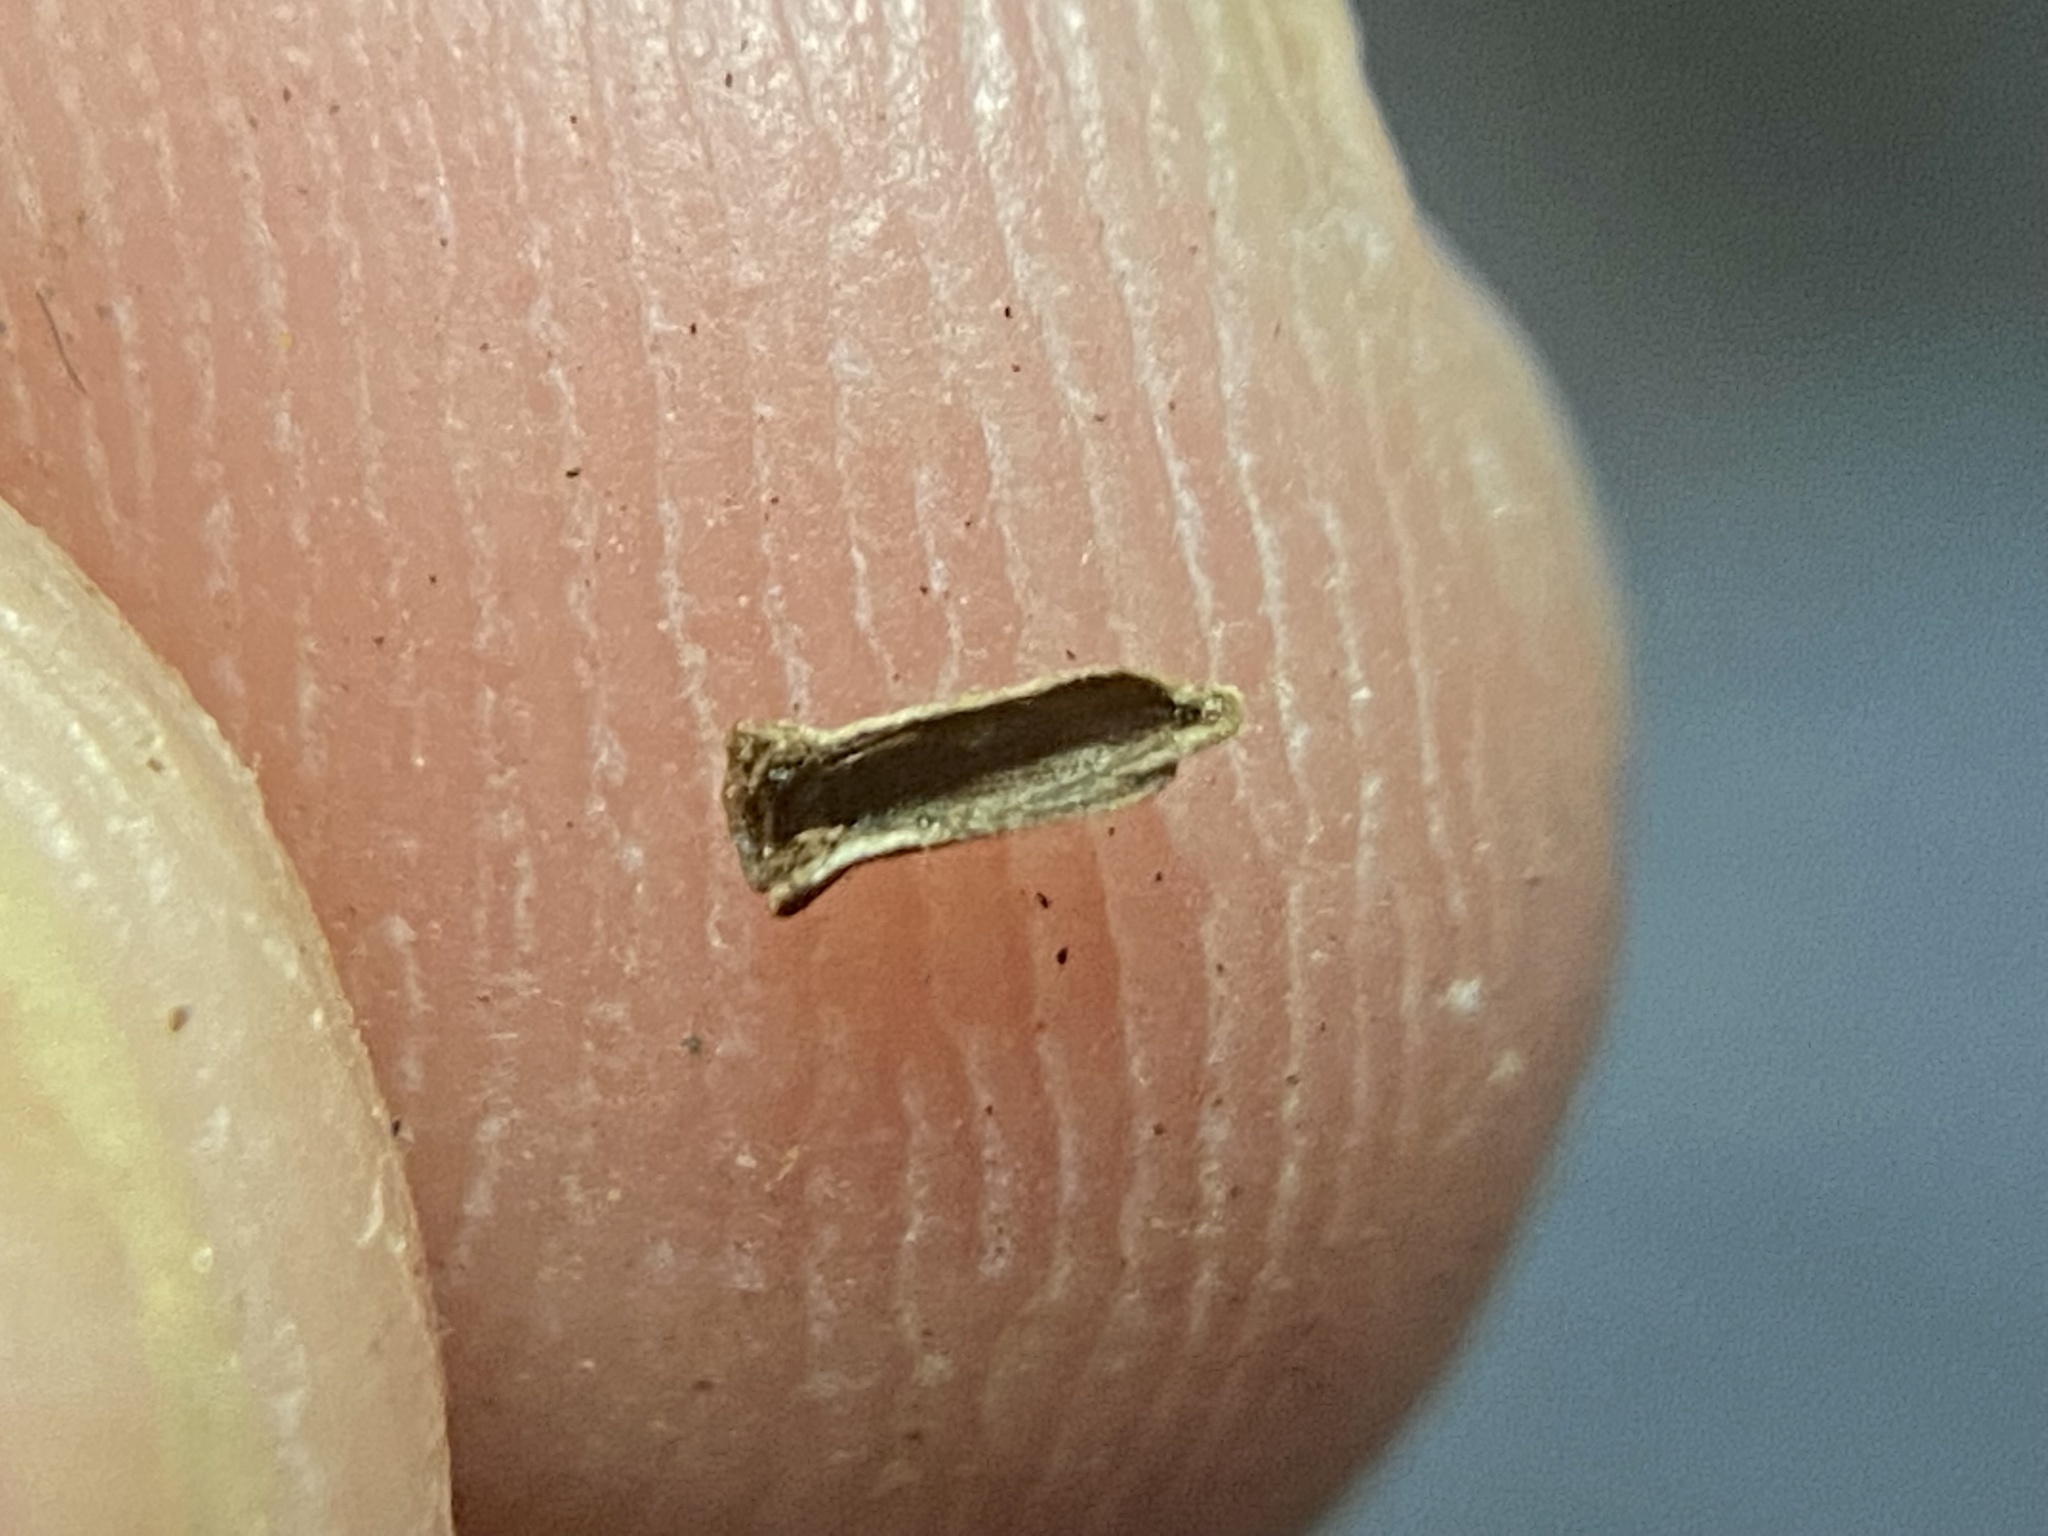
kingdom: Animalia
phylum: Arthropoda
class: Insecta
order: Diptera
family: Cecidomyiidae
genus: Caryomyia
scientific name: Caryomyia striolata
